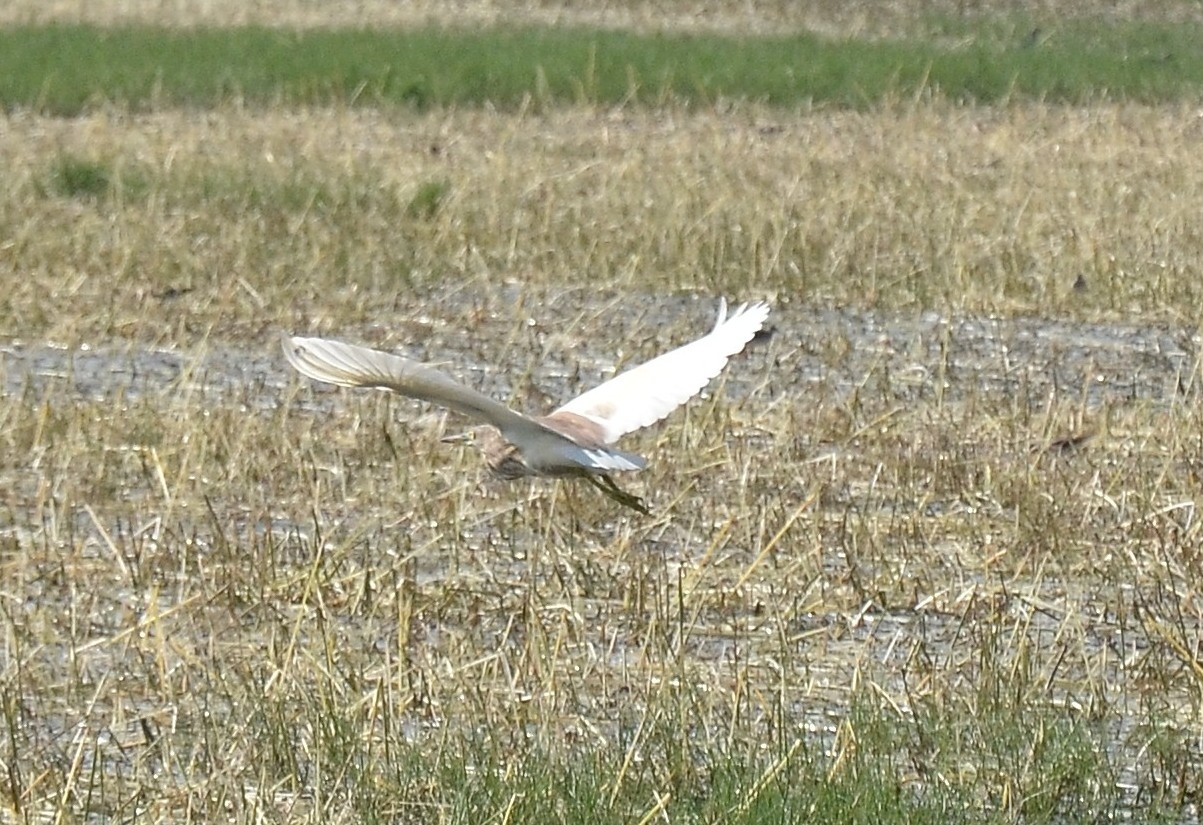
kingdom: Animalia
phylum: Chordata
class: Aves
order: Pelecaniformes
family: Ardeidae
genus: Ardeola
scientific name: Ardeola grayii
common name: Indian pond heron
